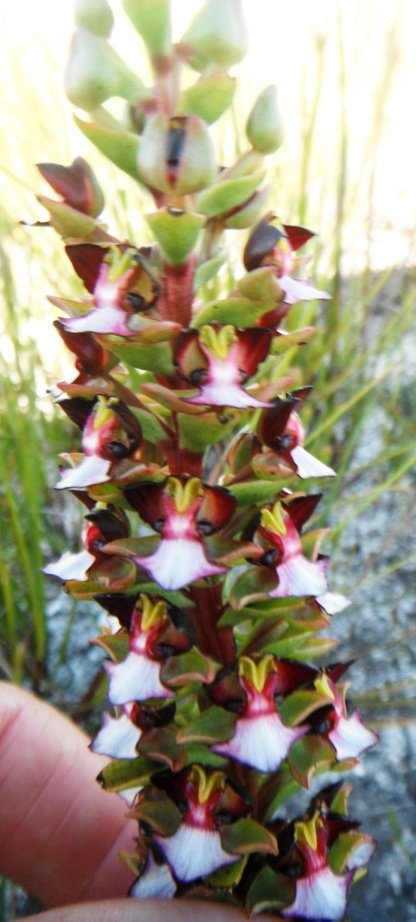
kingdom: Plantae
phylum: Tracheophyta
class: Liliopsida
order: Asparagales
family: Orchidaceae
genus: Evotella
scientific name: Evotella rubiginosa
